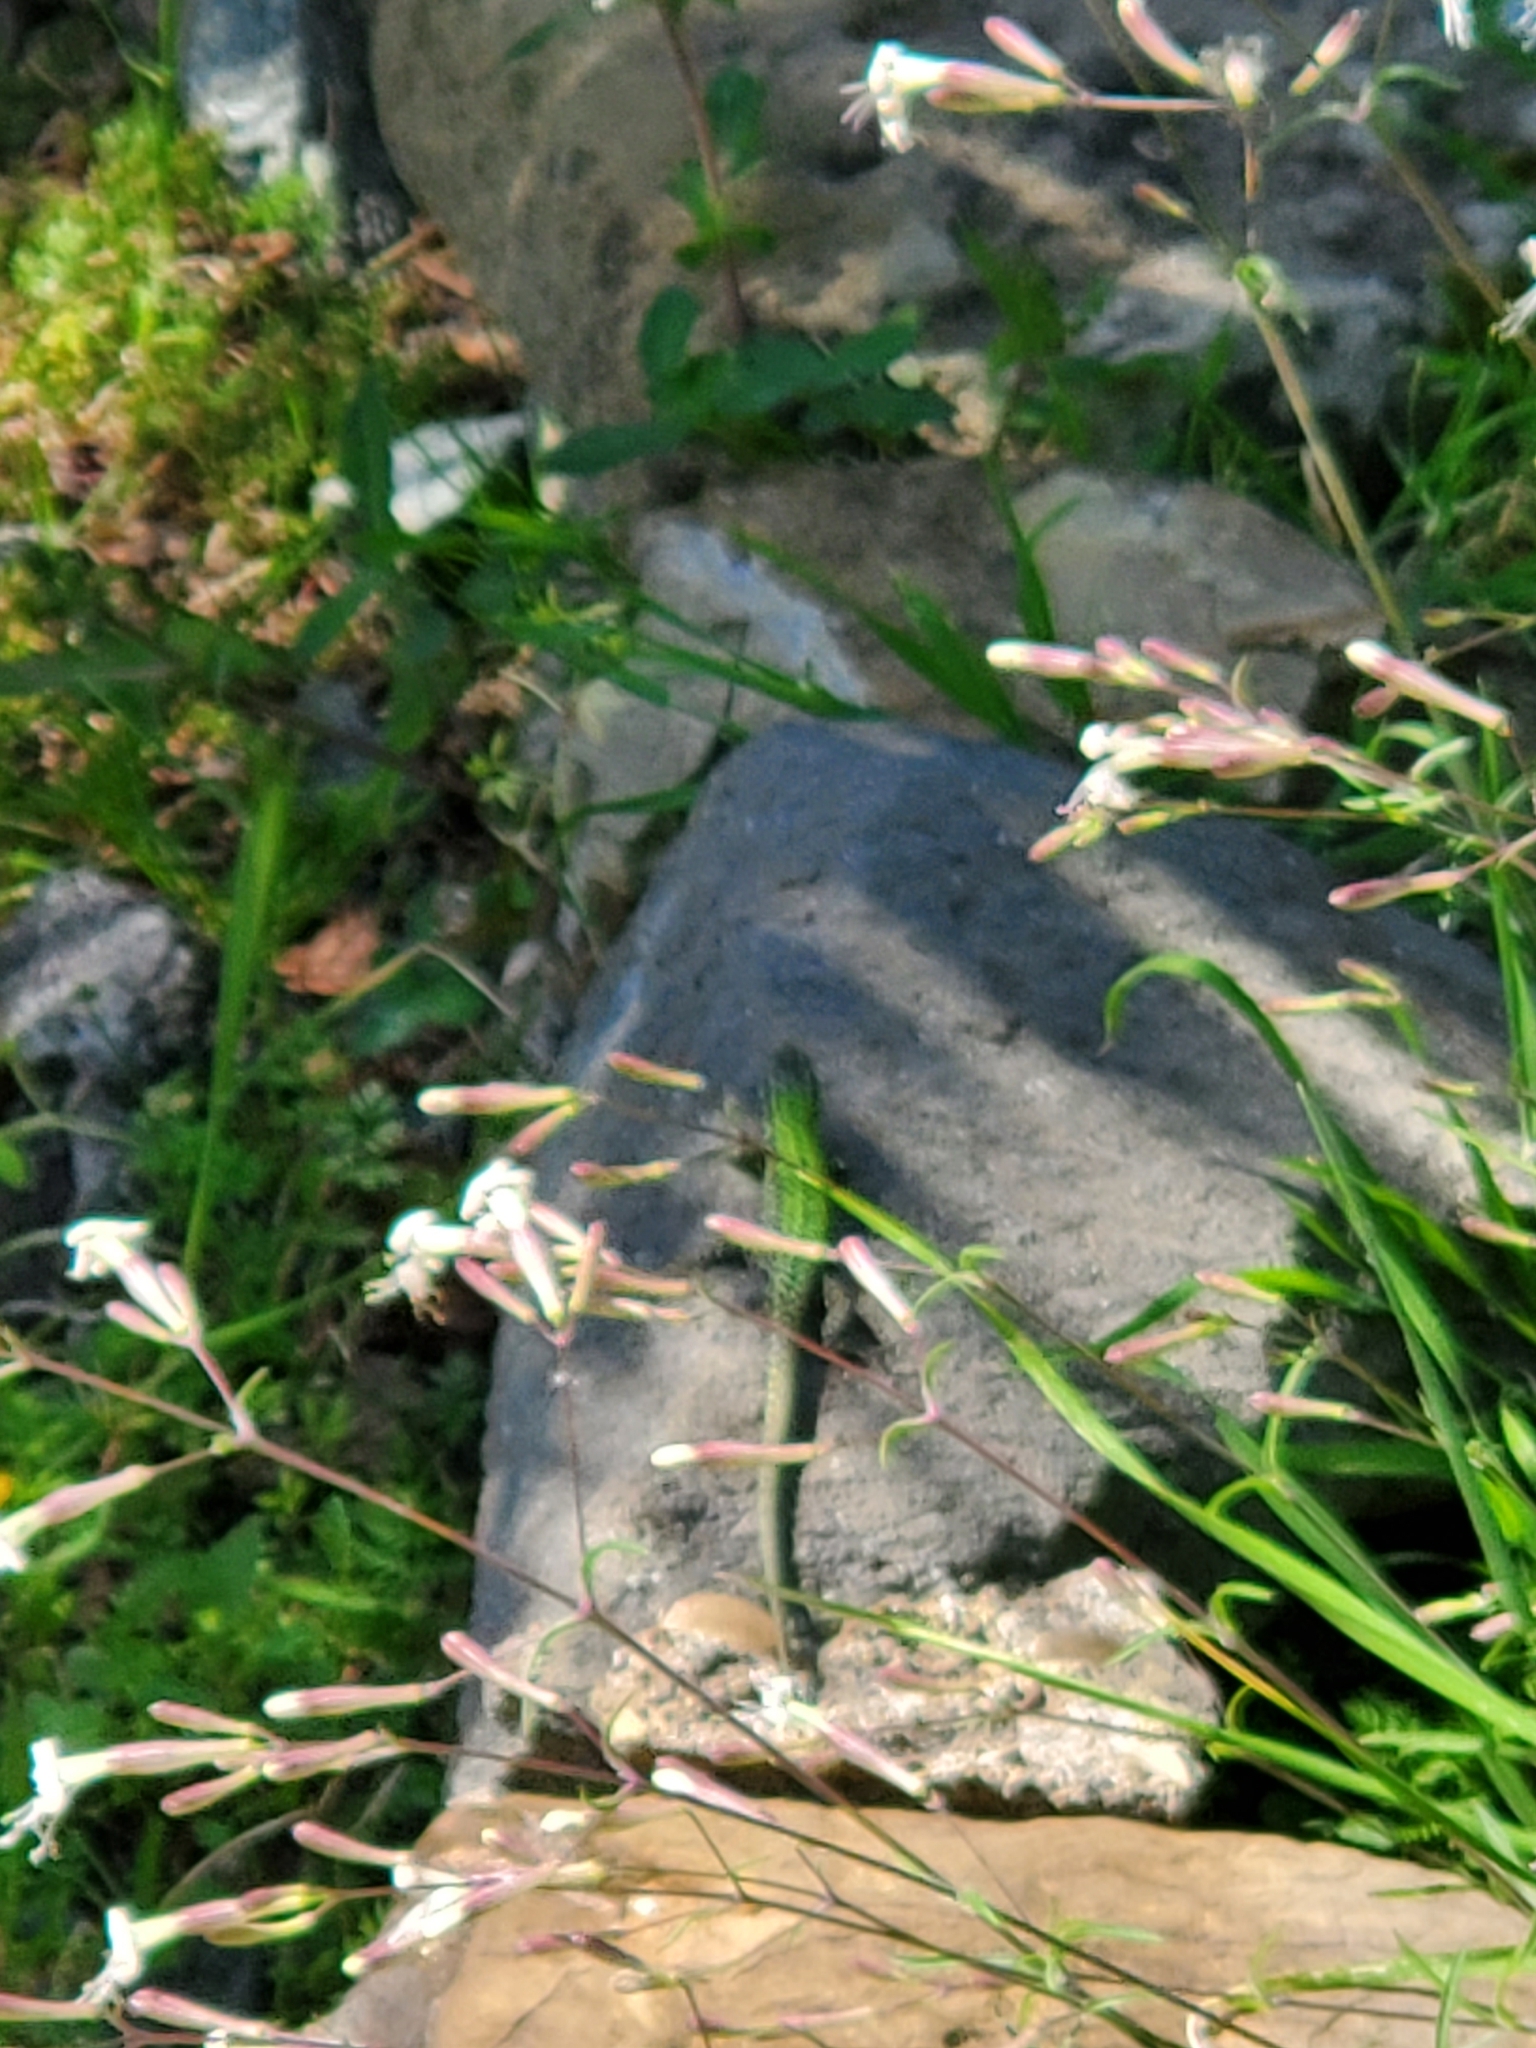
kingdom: Animalia
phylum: Chordata
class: Squamata
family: Lacertidae
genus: Podarcis
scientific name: Podarcis muralis
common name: Common wall lizard
